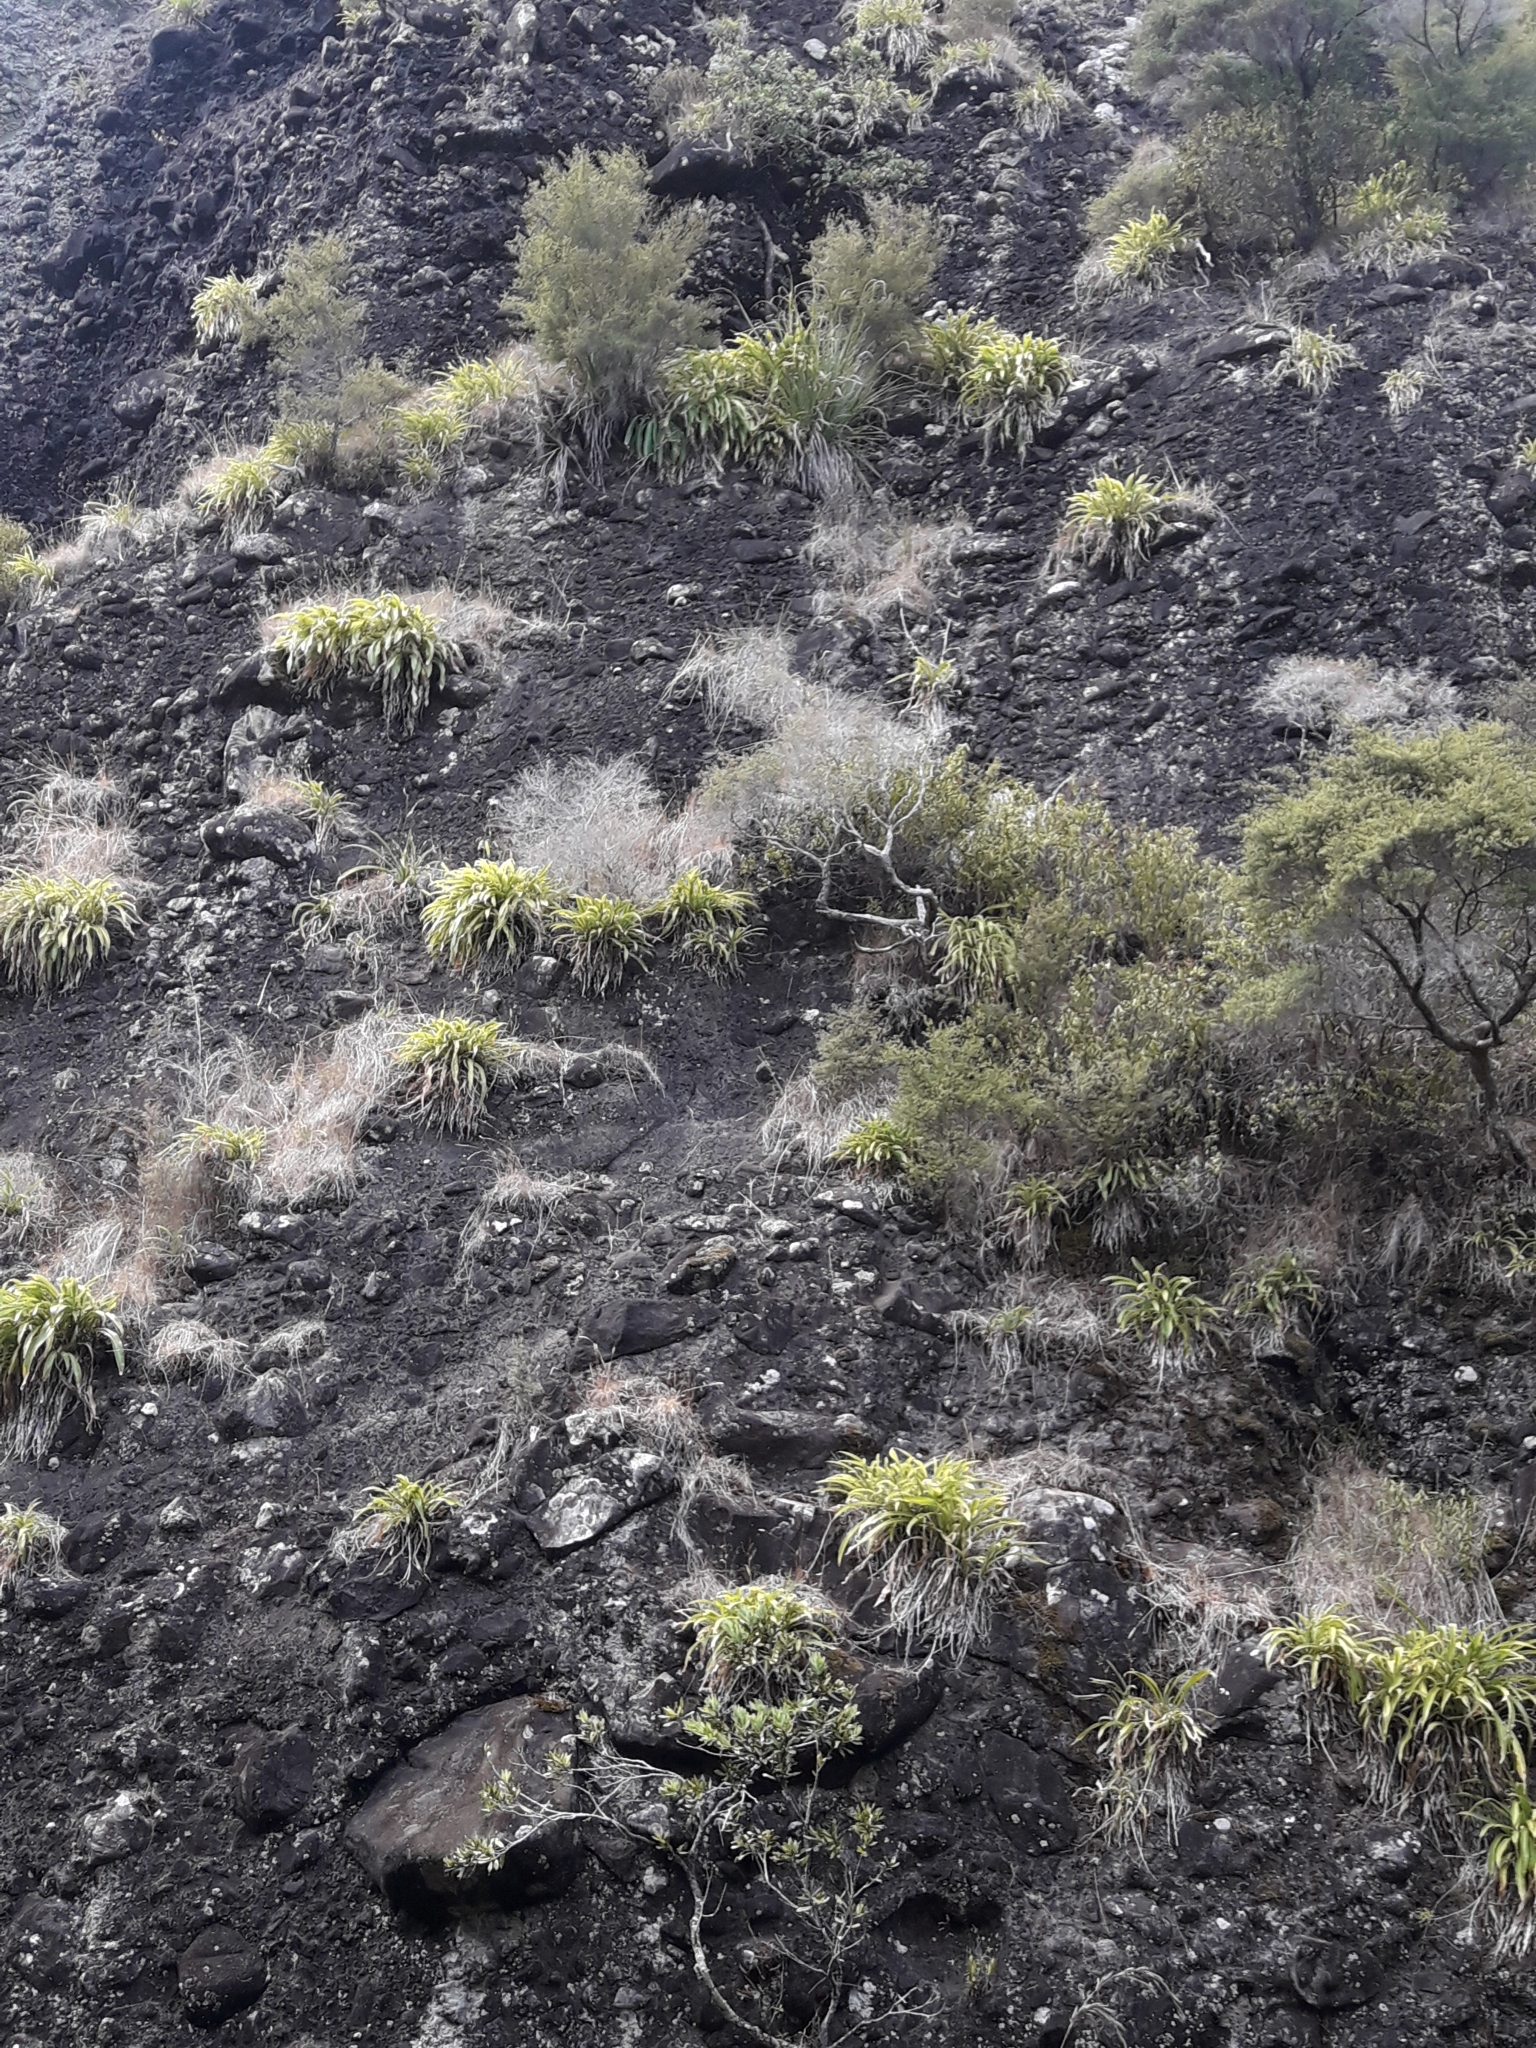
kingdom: Plantae
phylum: Tracheophyta
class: Liliopsida
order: Asparagales
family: Asparagaceae
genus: Arthropodium
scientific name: Arthropodium cirratum
